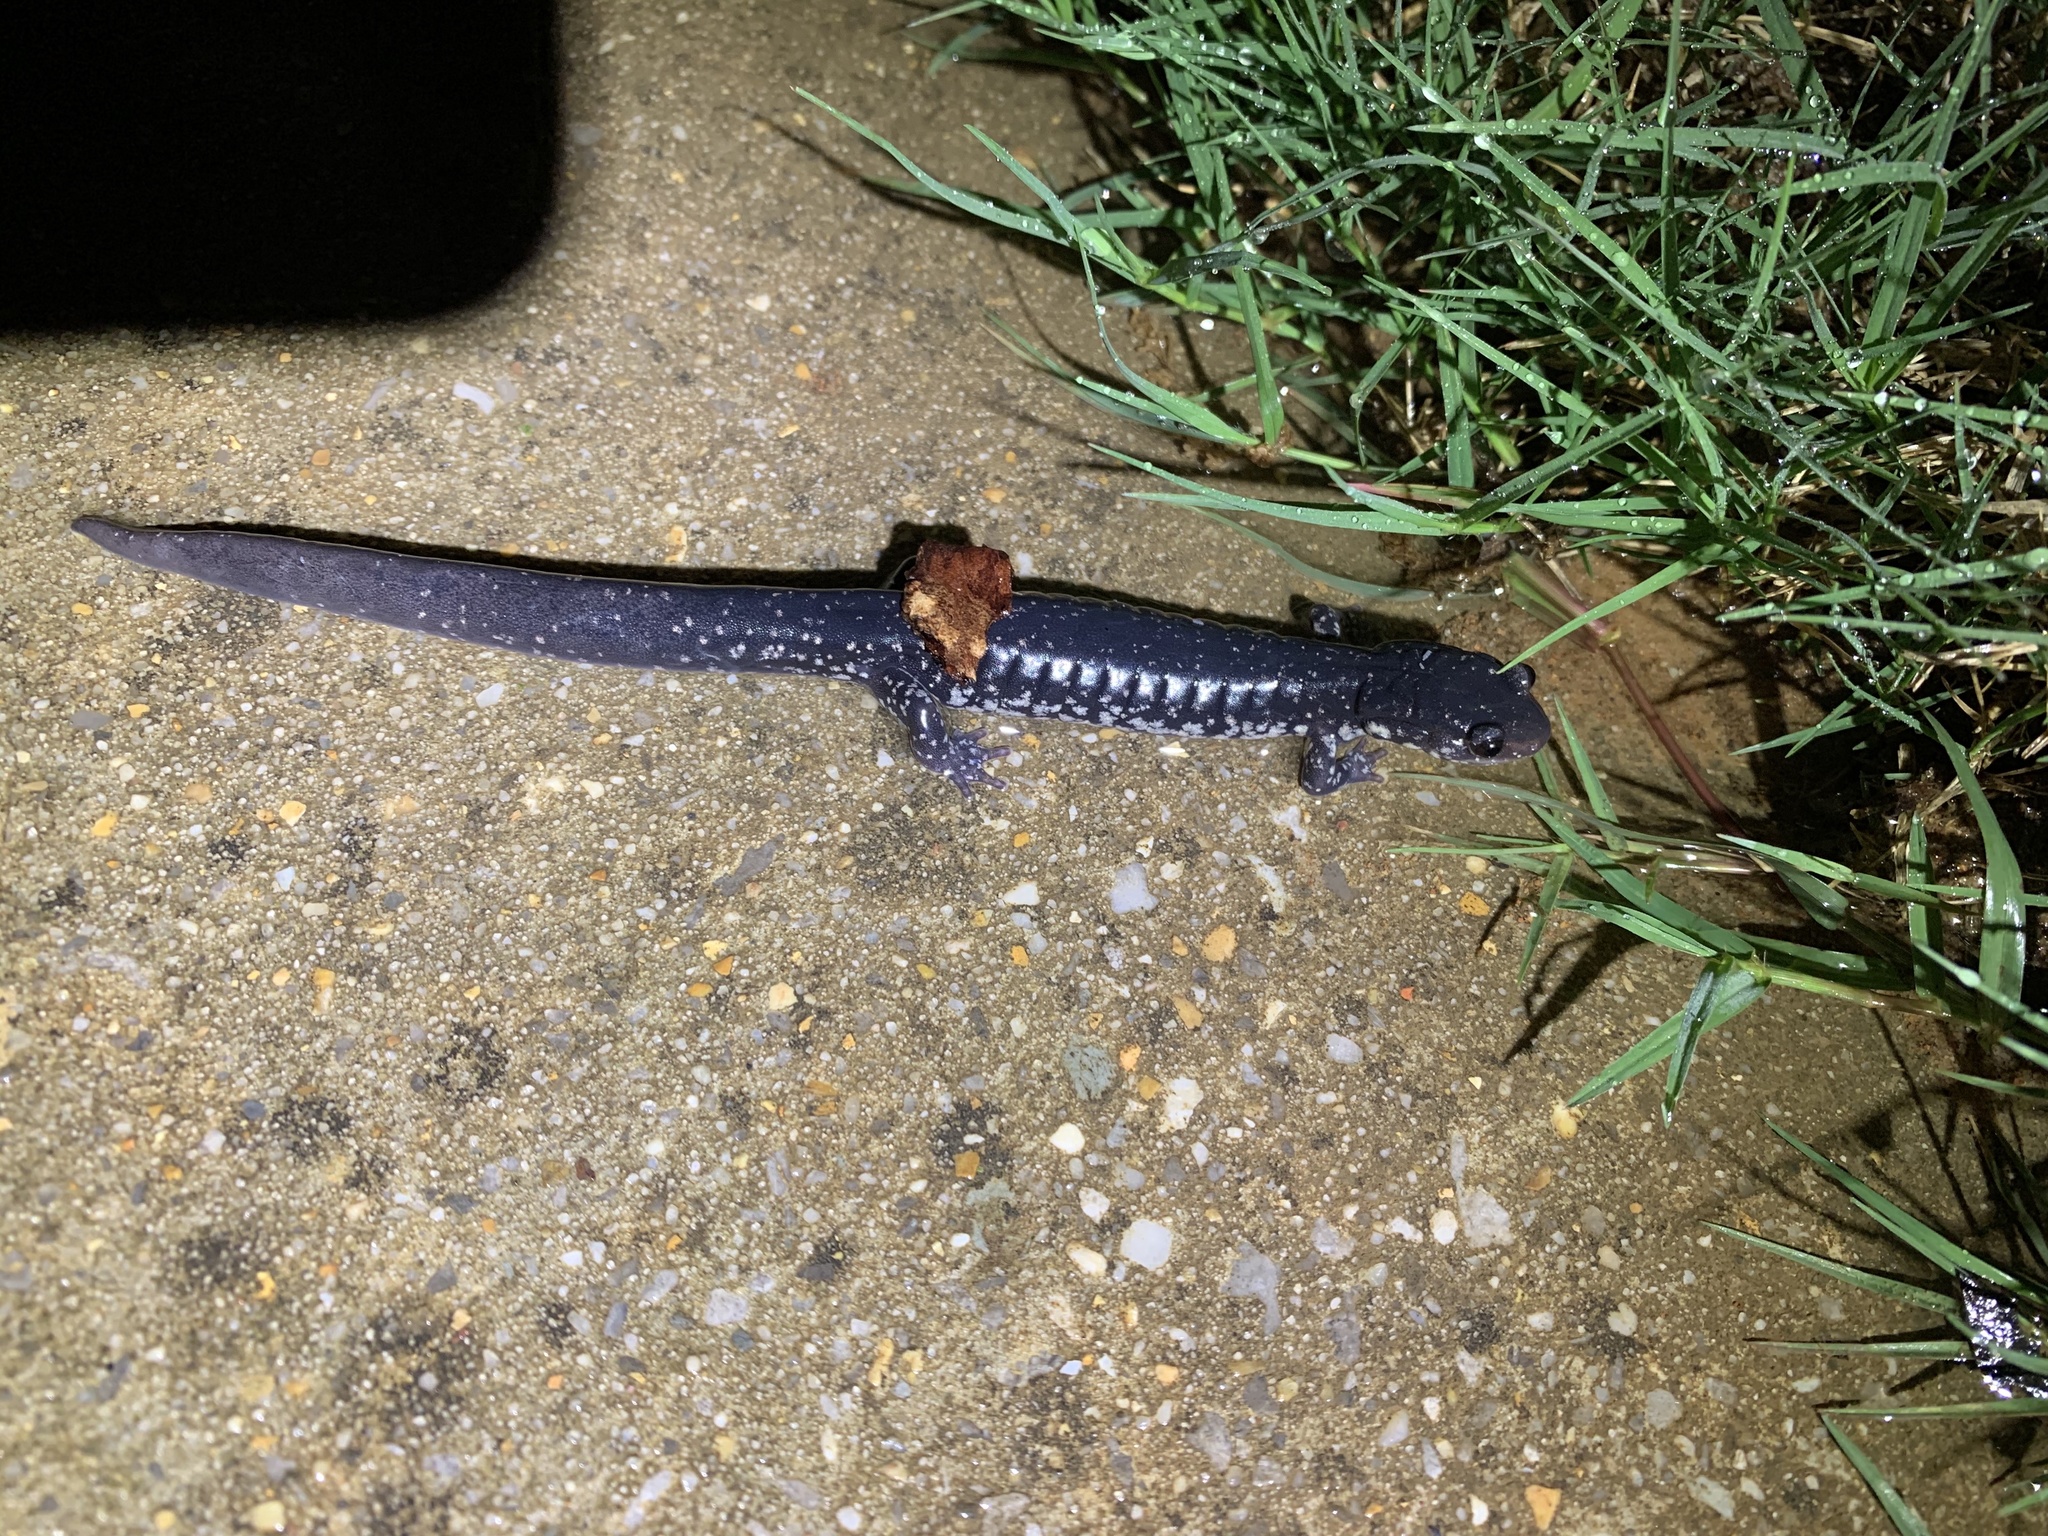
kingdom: Animalia
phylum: Chordata
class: Amphibia
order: Caudata
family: Plethodontidae
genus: Plethodon
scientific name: Plethodon glutinosus
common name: Northern slimy salamander
